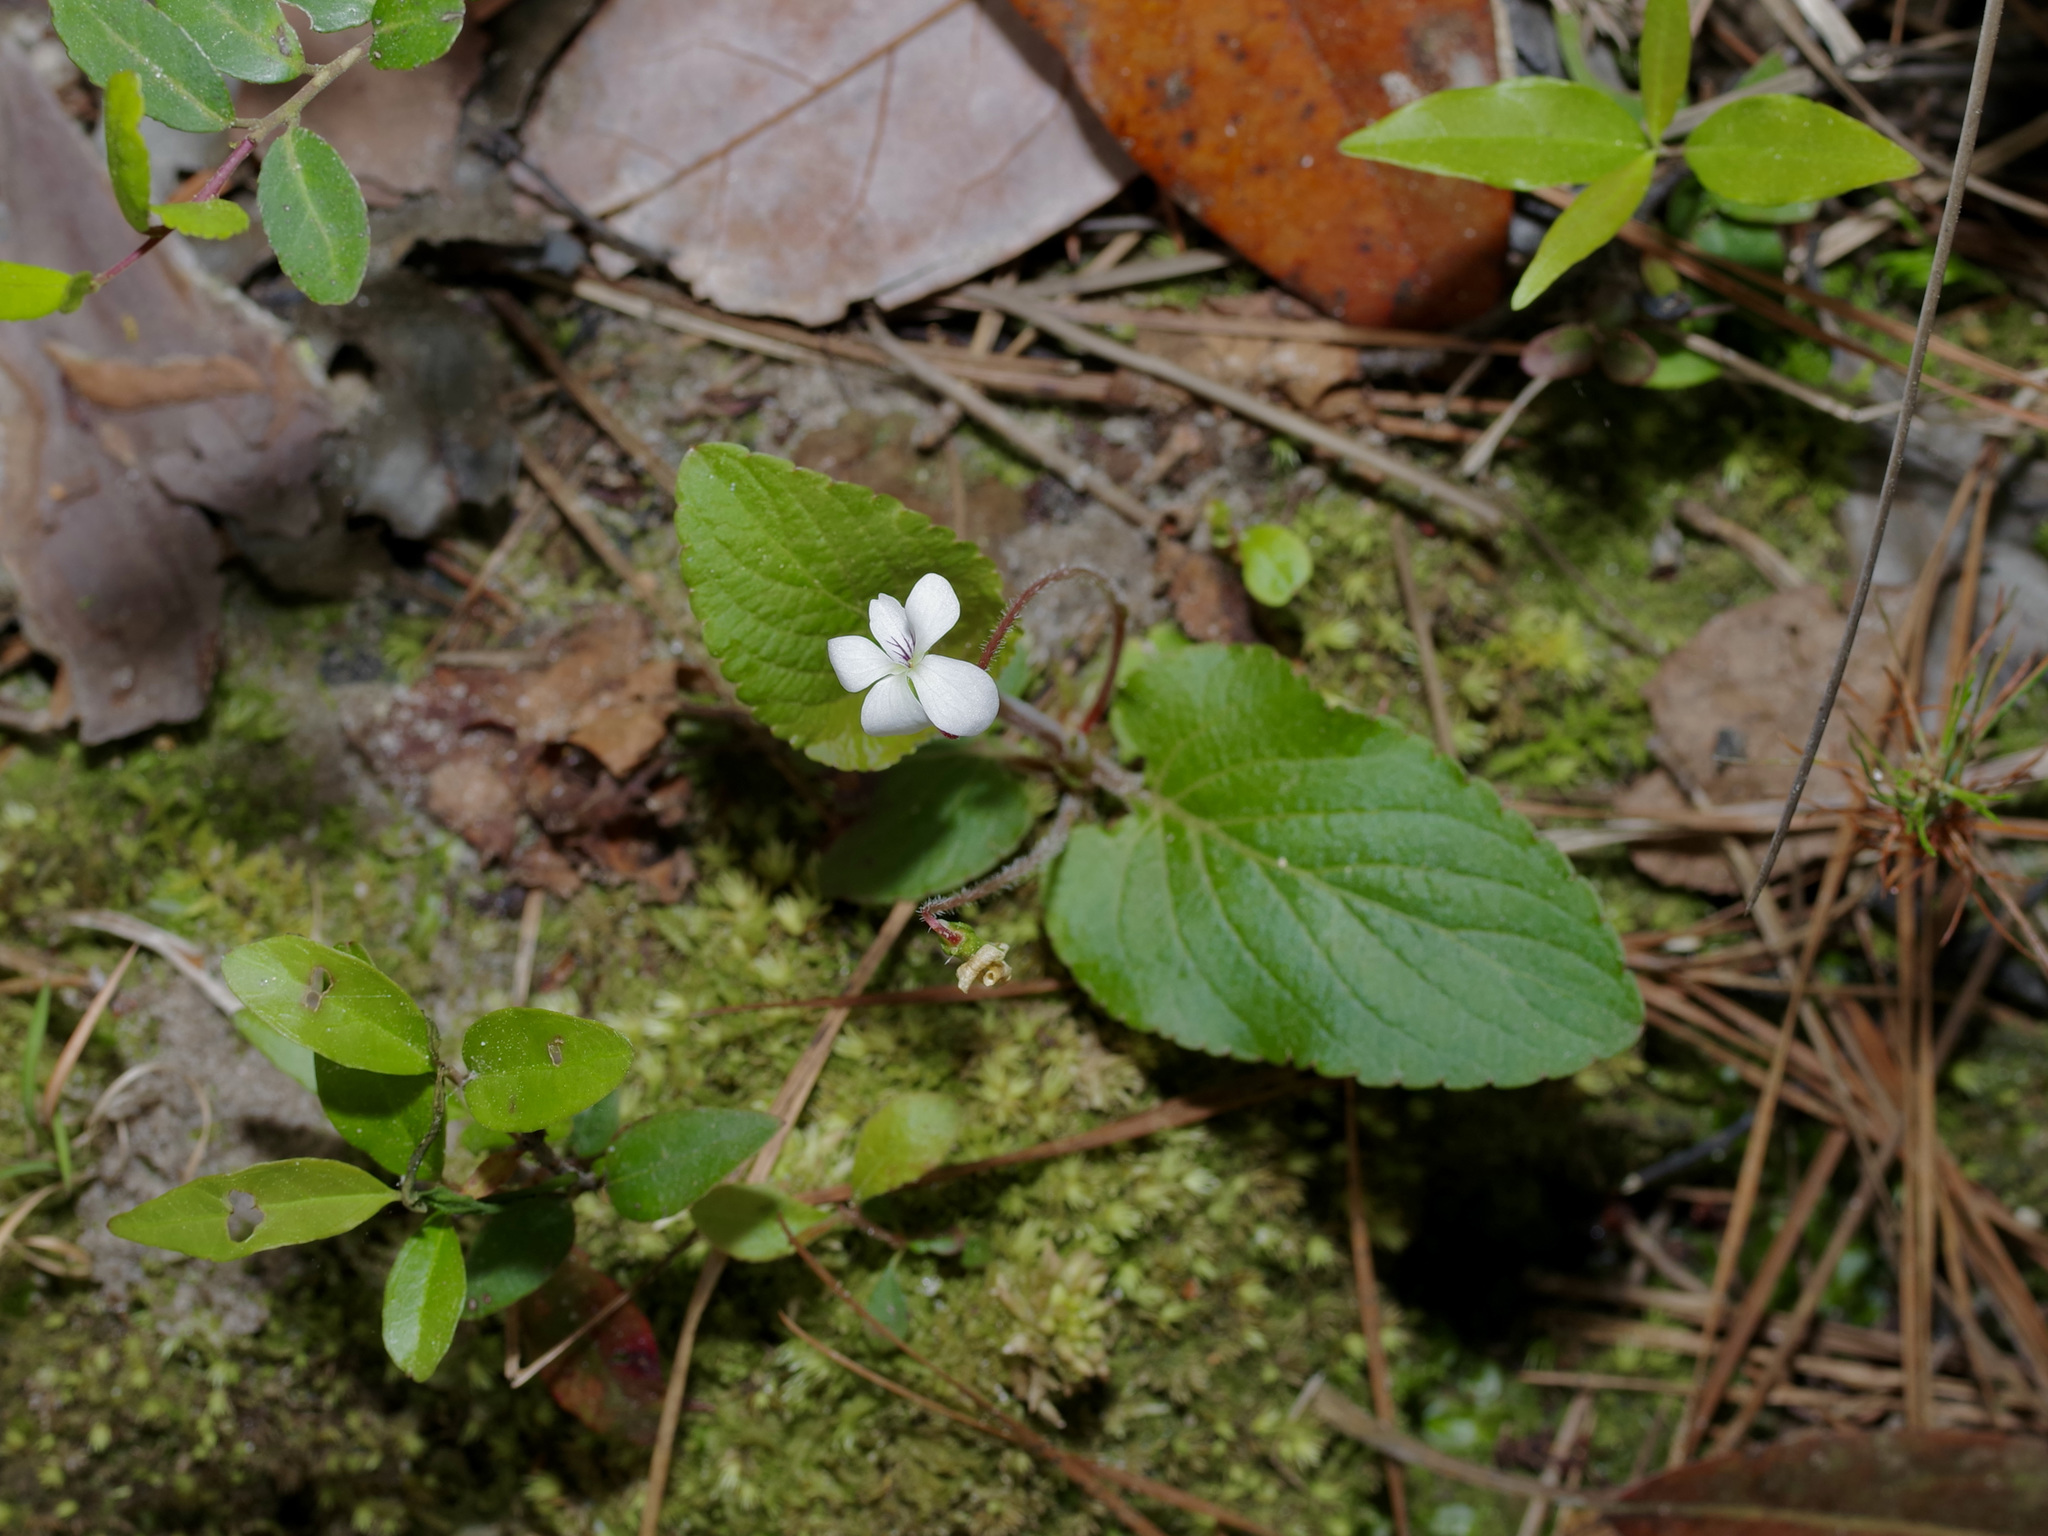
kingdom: Plantae
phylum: Tracheophyta
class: Magnoliopsida
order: Malpighiales
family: Violaceae
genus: Viola
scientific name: Viola primulifolia
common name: Primrose-leaf violet
